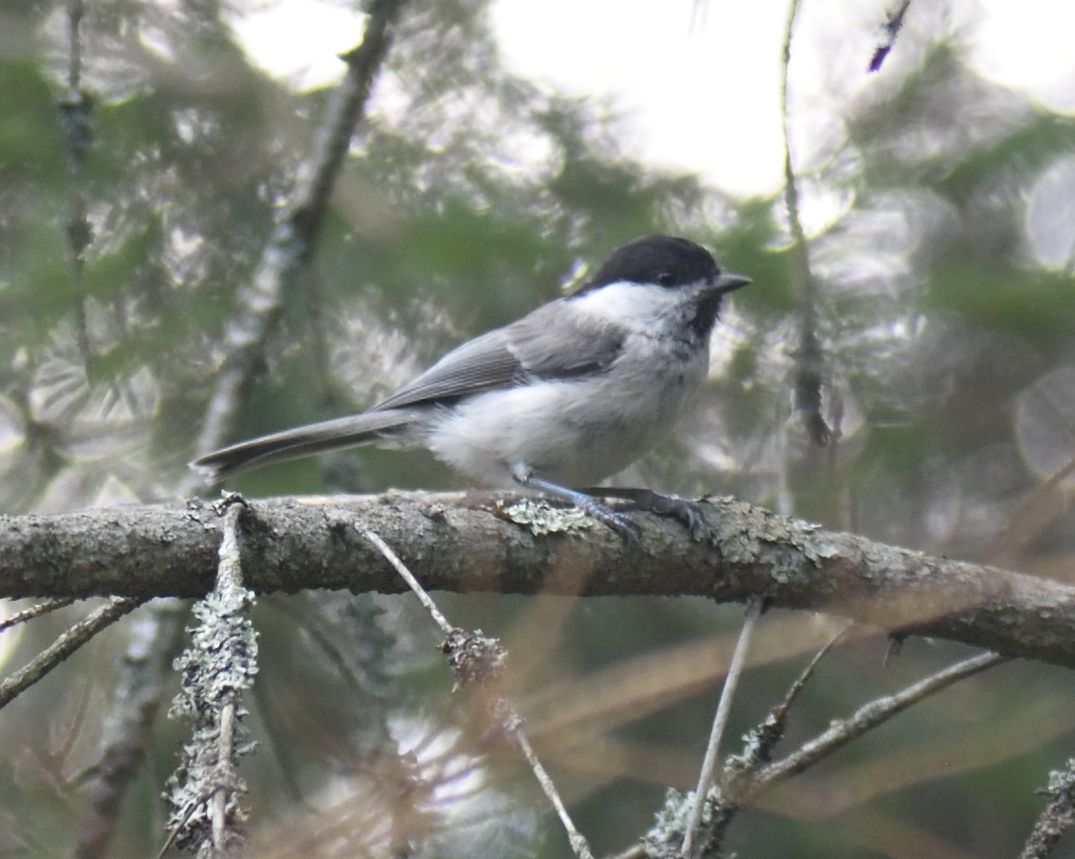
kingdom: Animalia
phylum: Chordata
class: Aves
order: Passeriformes
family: Paridae
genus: Poecile
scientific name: Poecile montanus
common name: Willow tit
